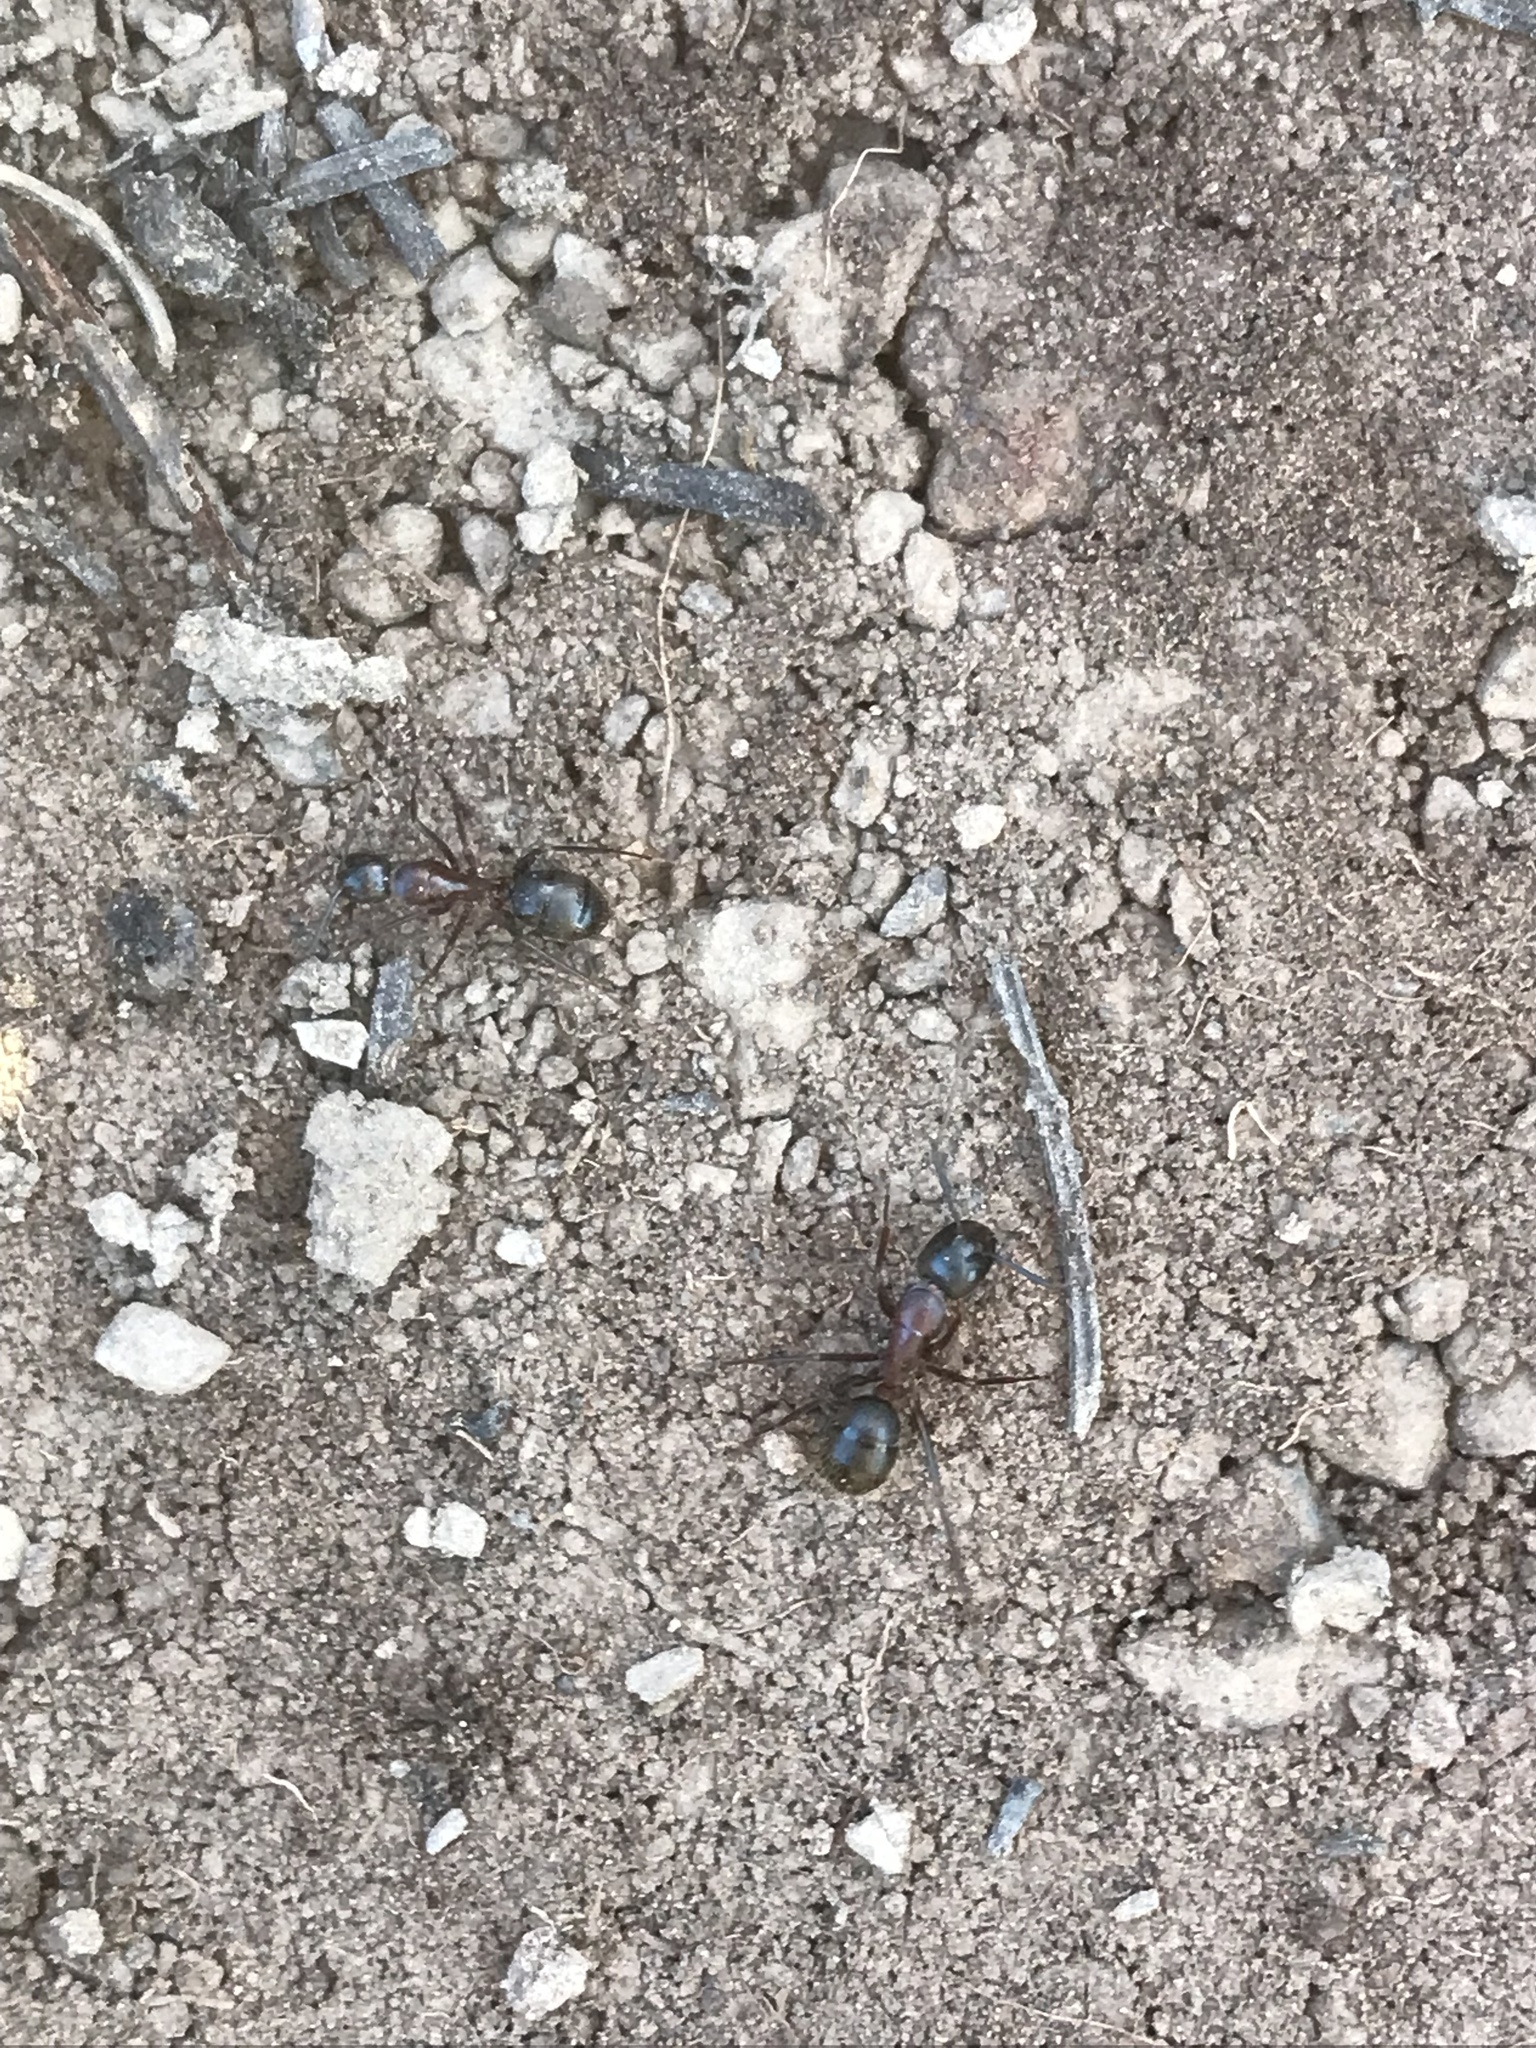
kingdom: Animalia
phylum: Arthropoda
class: Insecta
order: Hymenoptera
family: Formicidae
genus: Camponotus
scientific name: Camponotus vicinus
